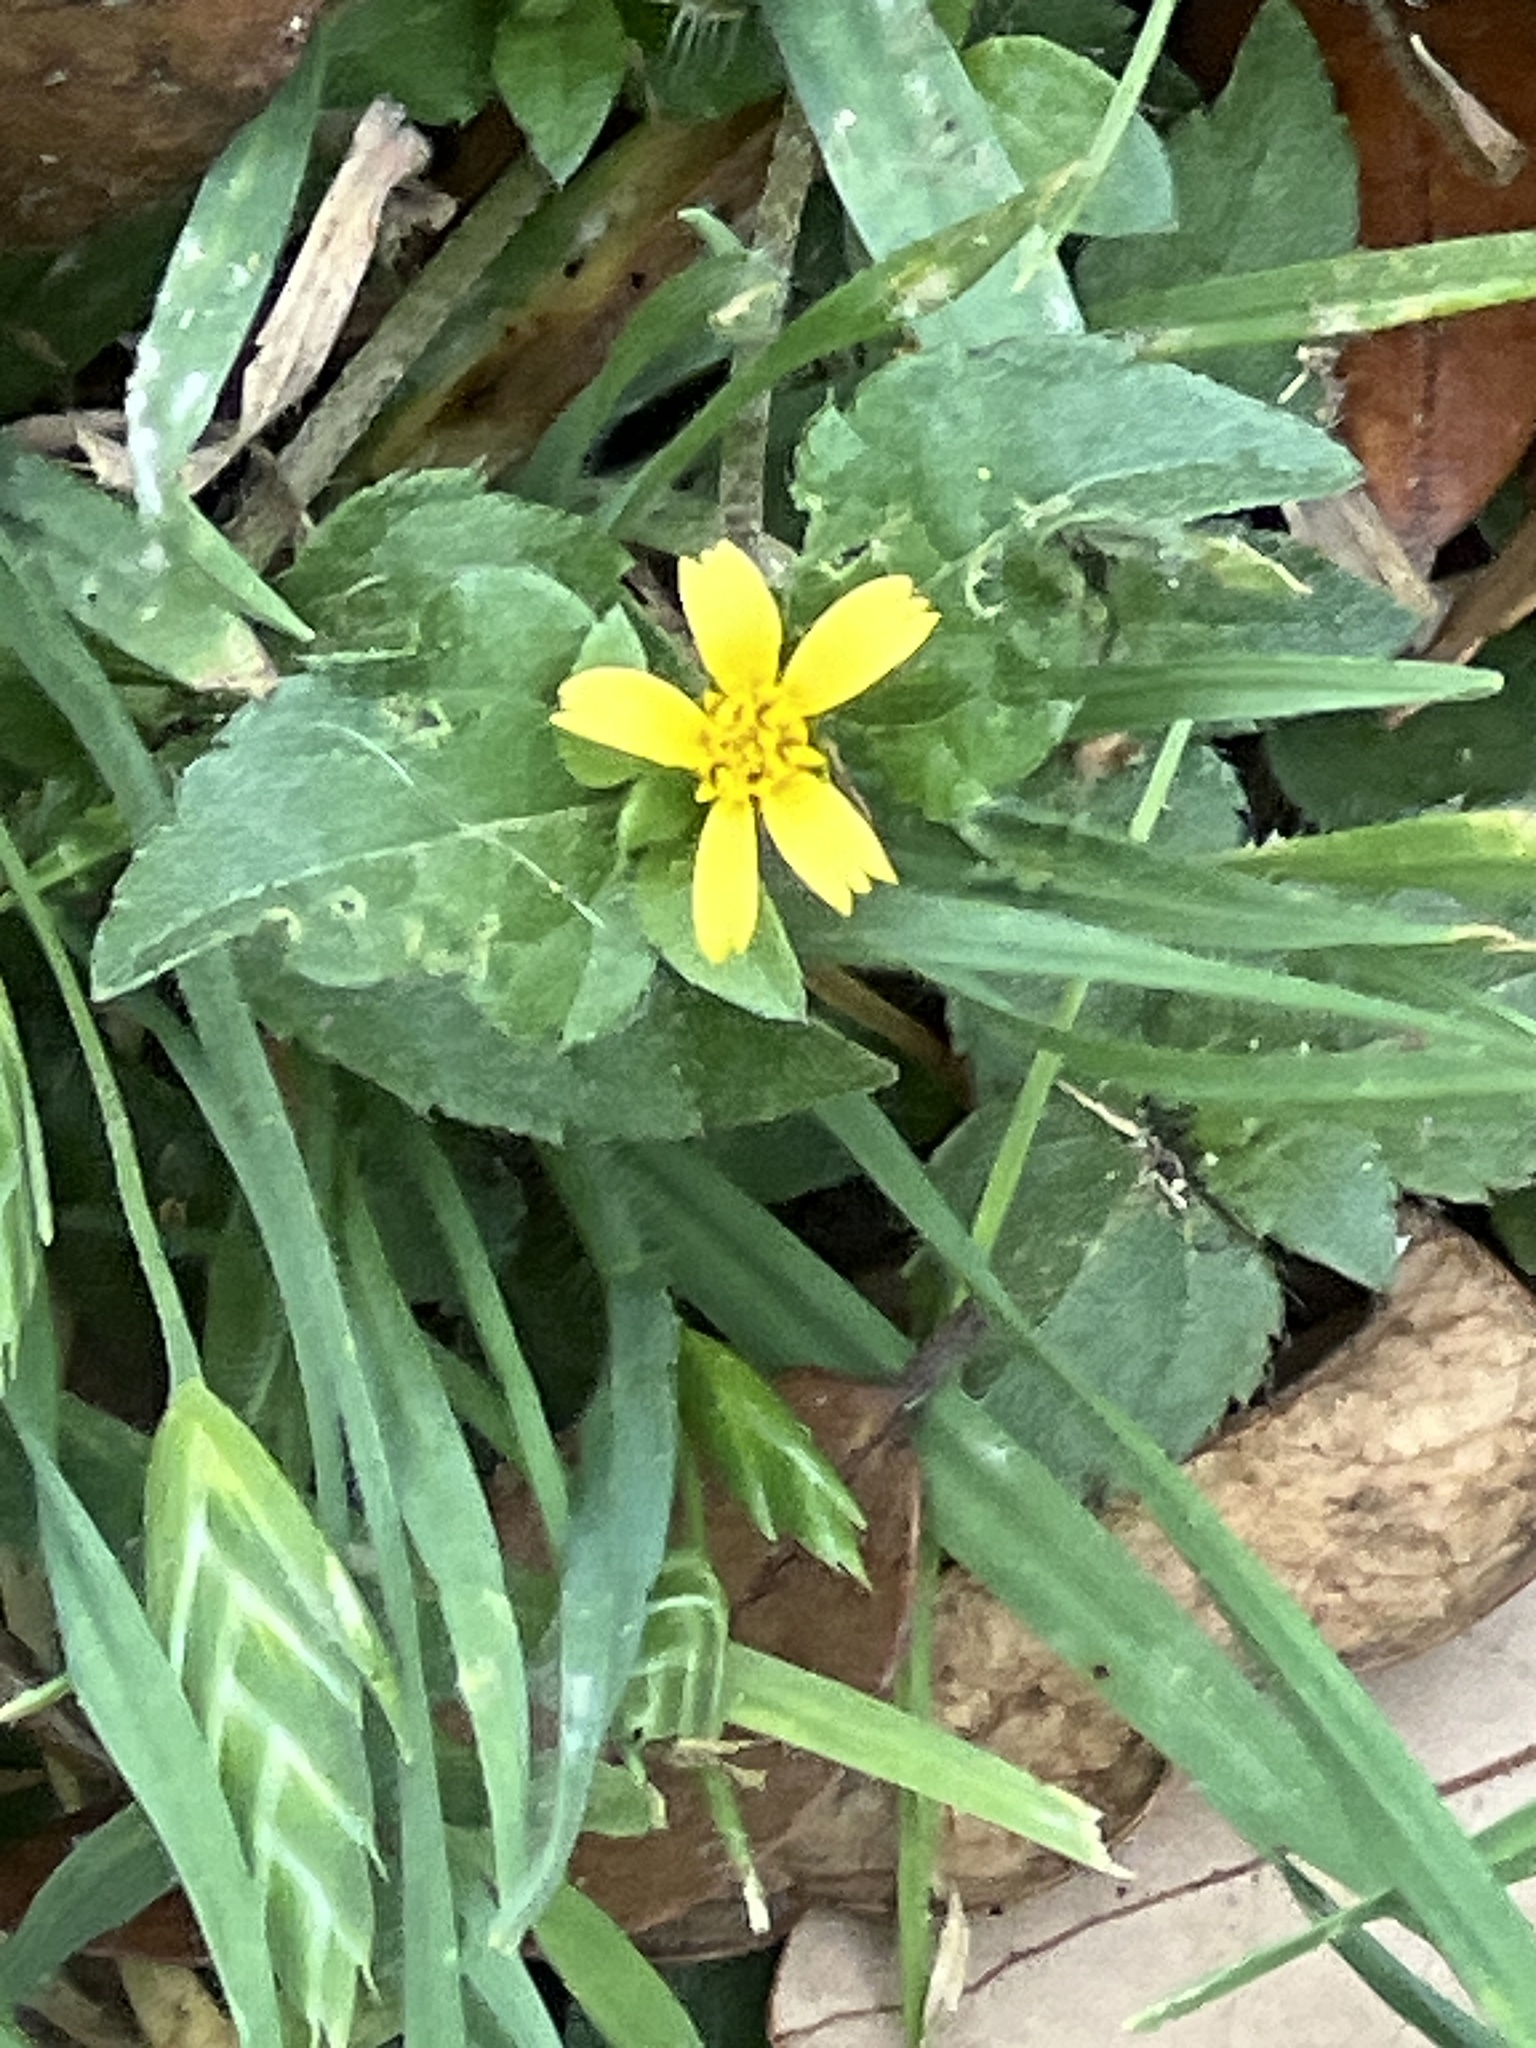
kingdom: Plantae
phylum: Tracheophyta
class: Magnoliopsida
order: Asterales
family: Asteraceae
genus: Calyptocarpus
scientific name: Calyptocarpus vialis
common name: Straggler daisy
